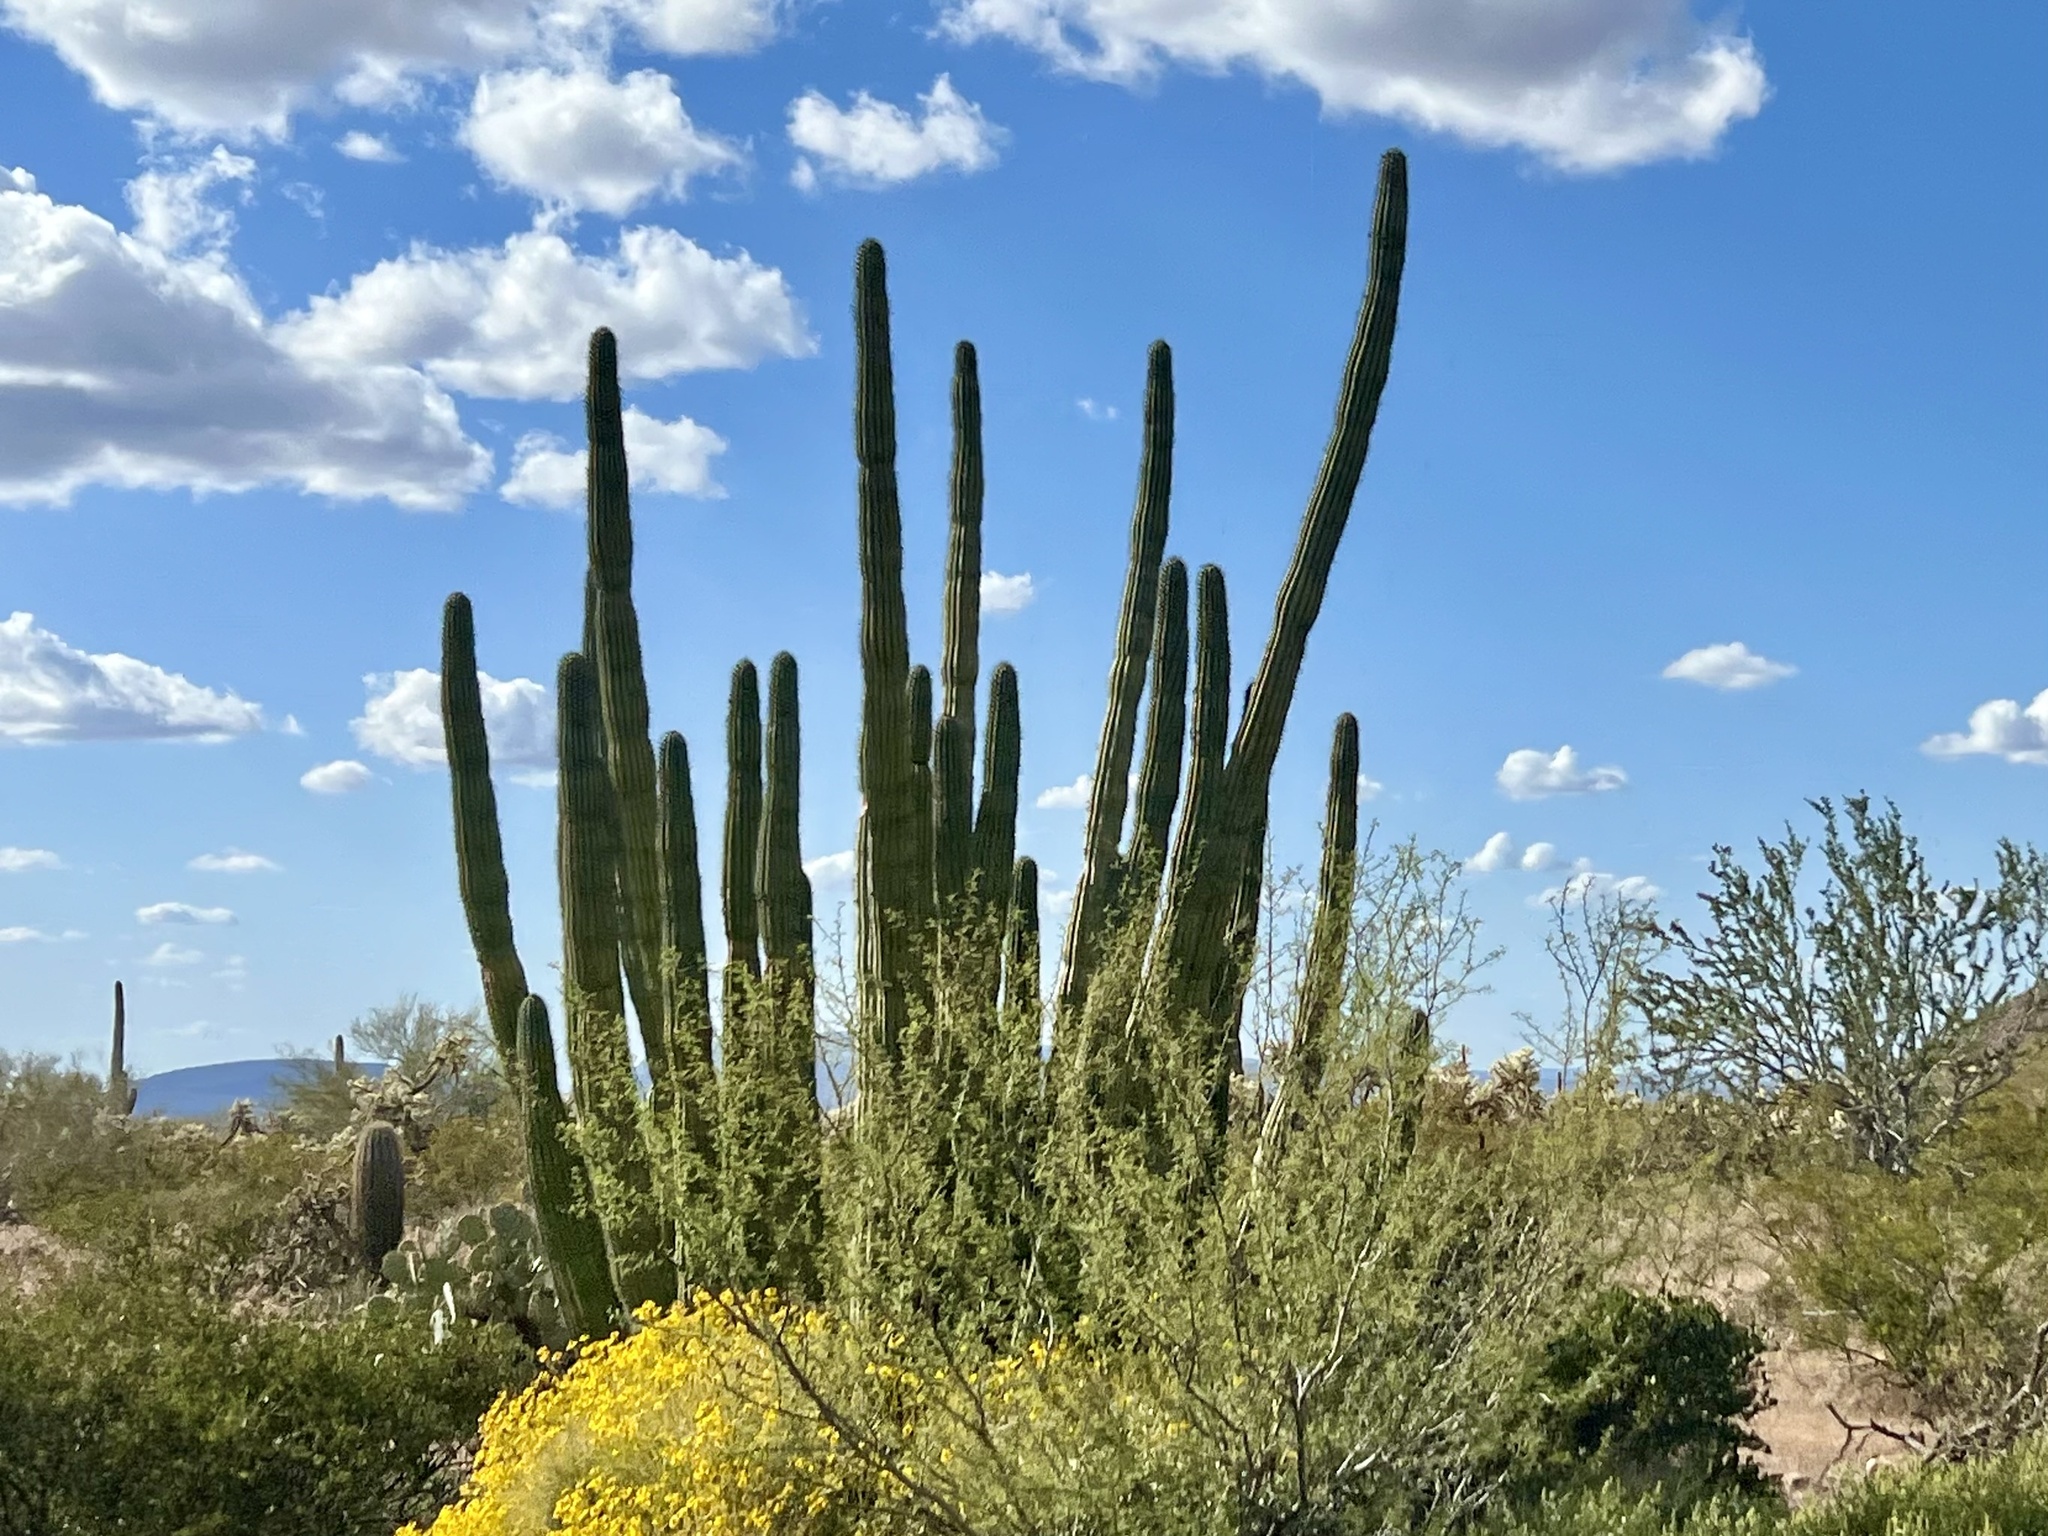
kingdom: Plantae
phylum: Tracheophyta
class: Magnoliopsida
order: Caryophyllales
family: Cactaceae
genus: Stenocereus
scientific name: Stenocereus thurberi
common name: Organ pipe cactus
